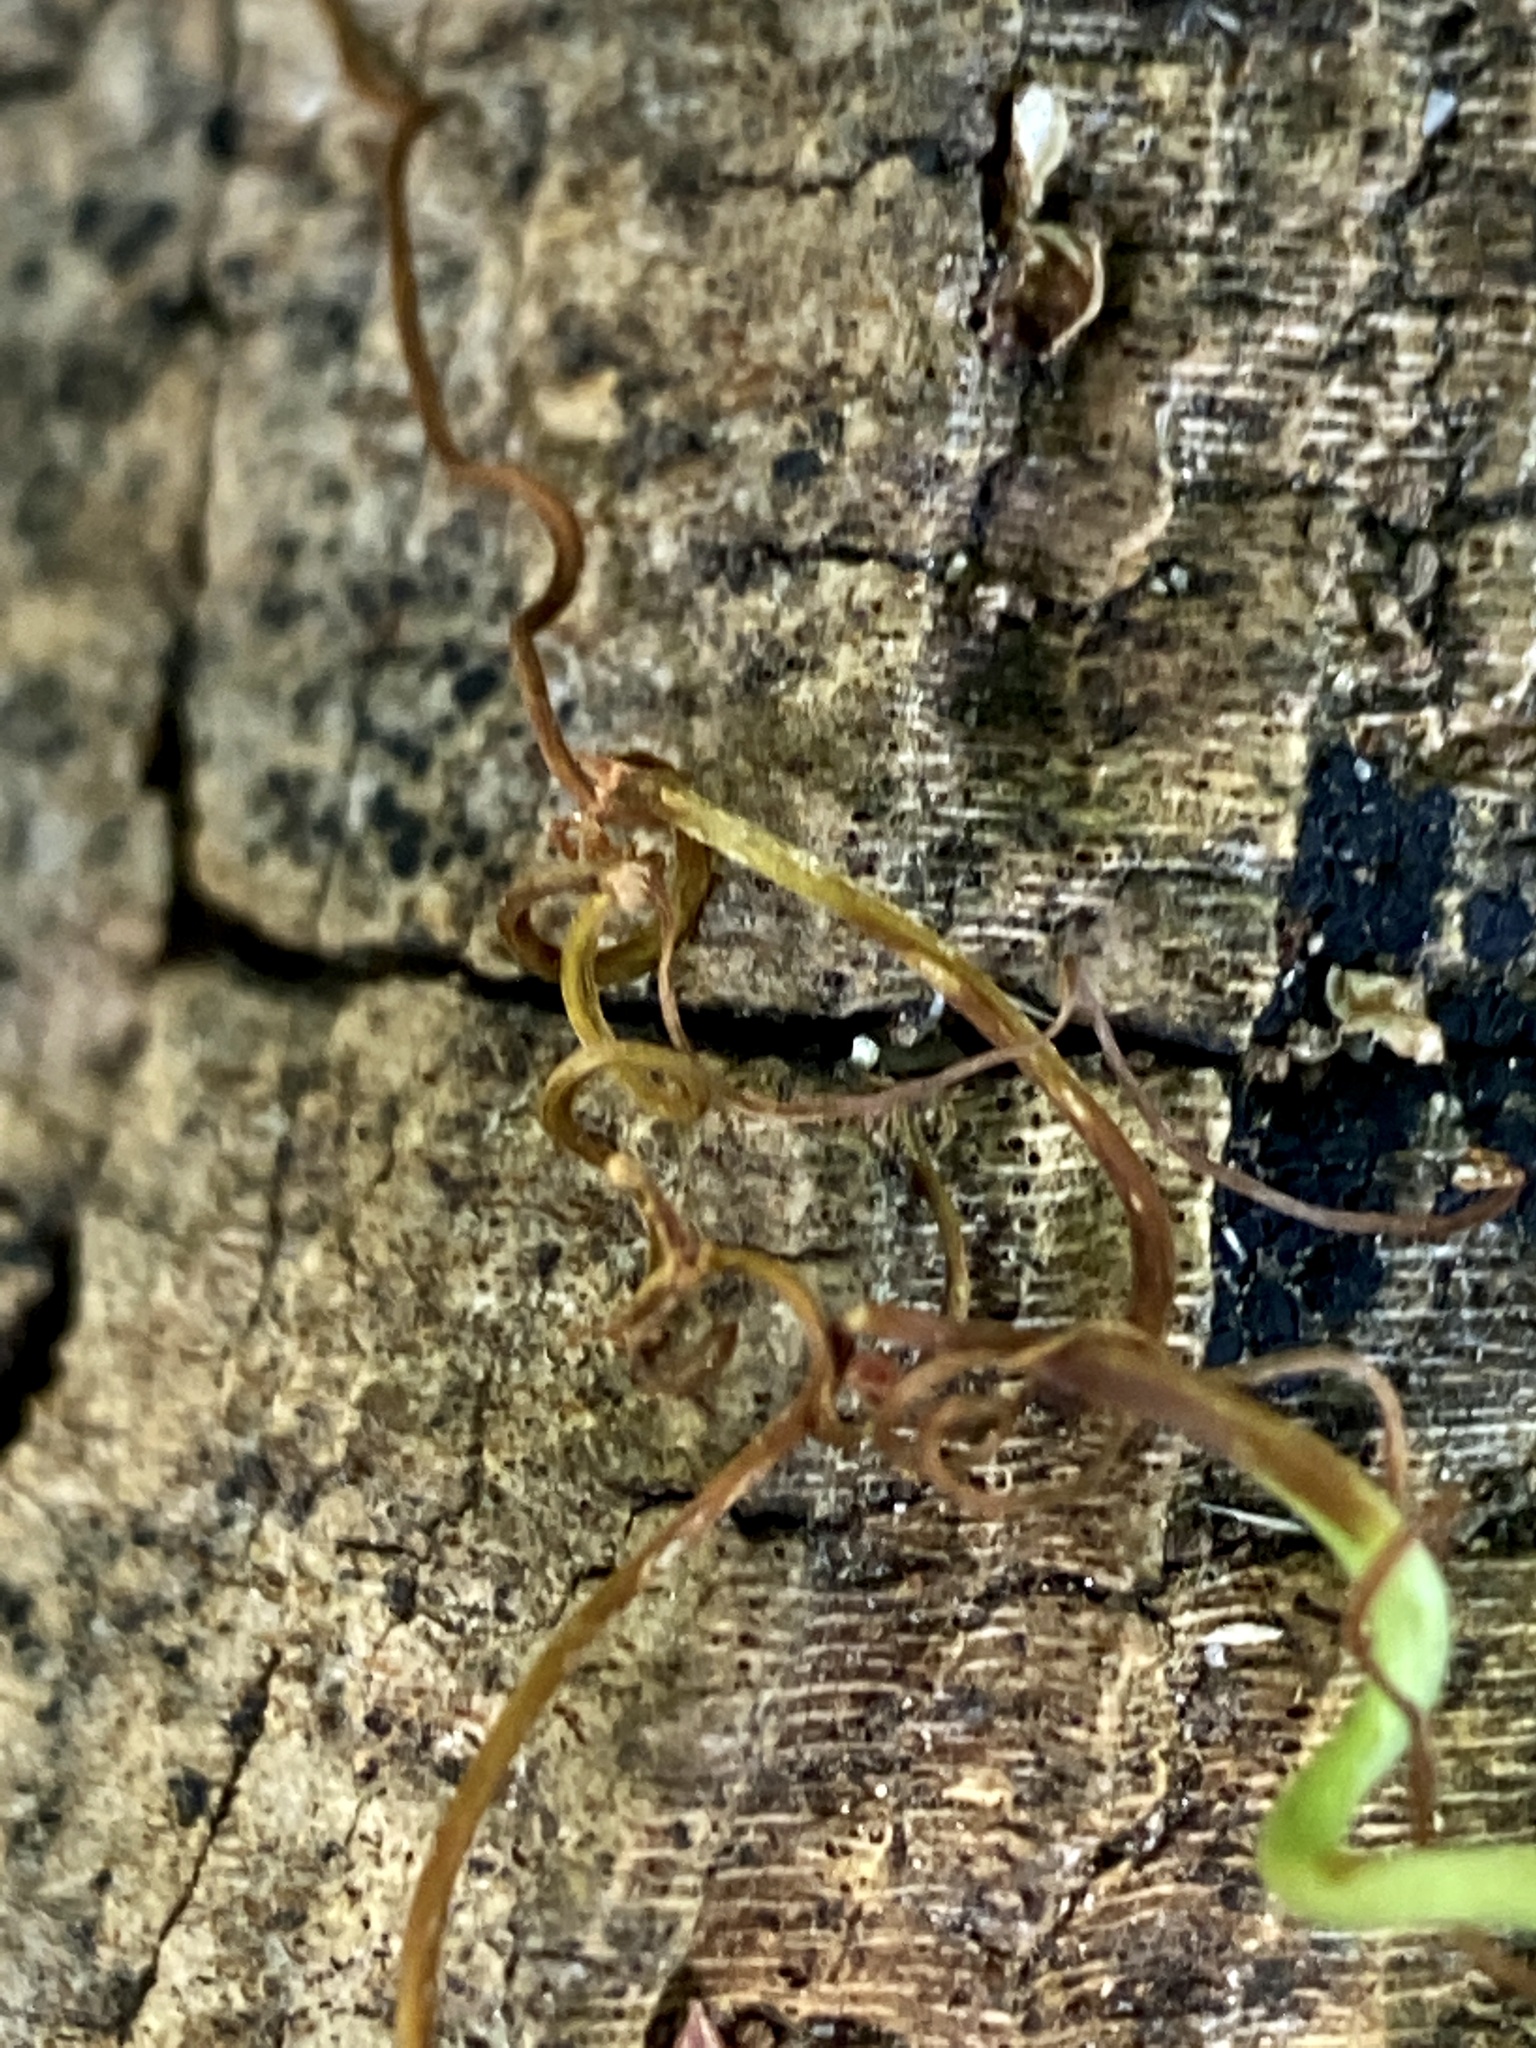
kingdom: Plantae
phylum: Tracheophyta
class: Magnoliopsida
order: Vitales
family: Vitaceae
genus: Parthenocissus
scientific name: Parthenocissus quinquefolia
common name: Virginia-creeper
